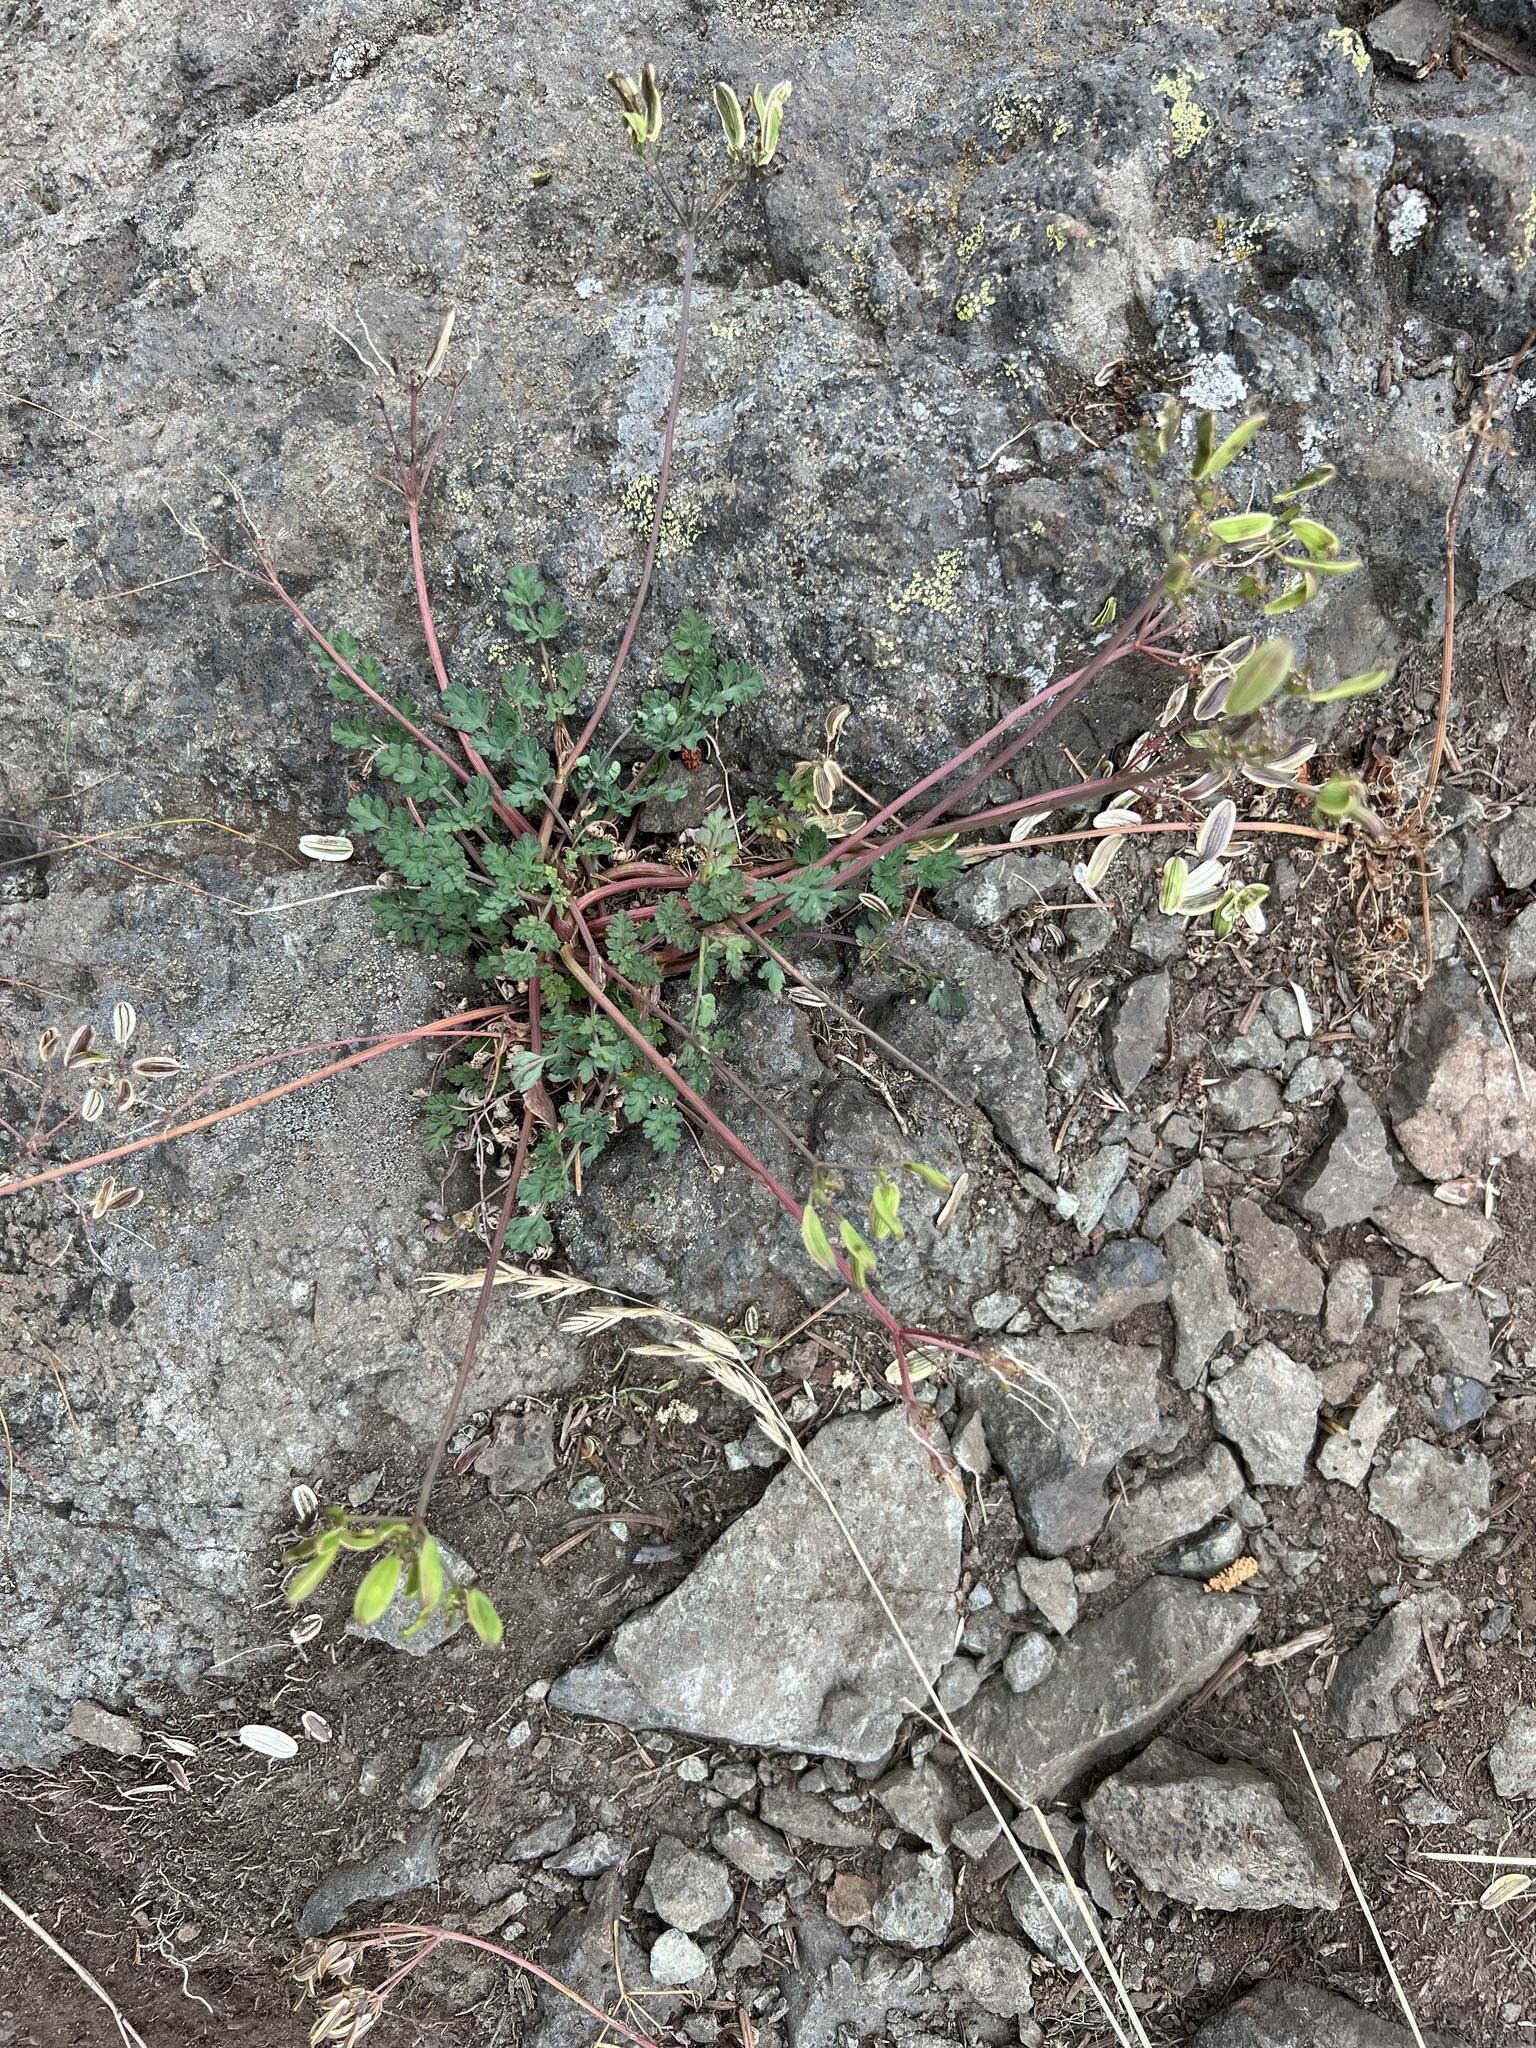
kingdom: Plantae
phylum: Tracheophyta
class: Magnoliopsida
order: Apiales
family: Apiaceae
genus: Lomatium
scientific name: Lomatium martindalei
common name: Cascade desert-parsley
